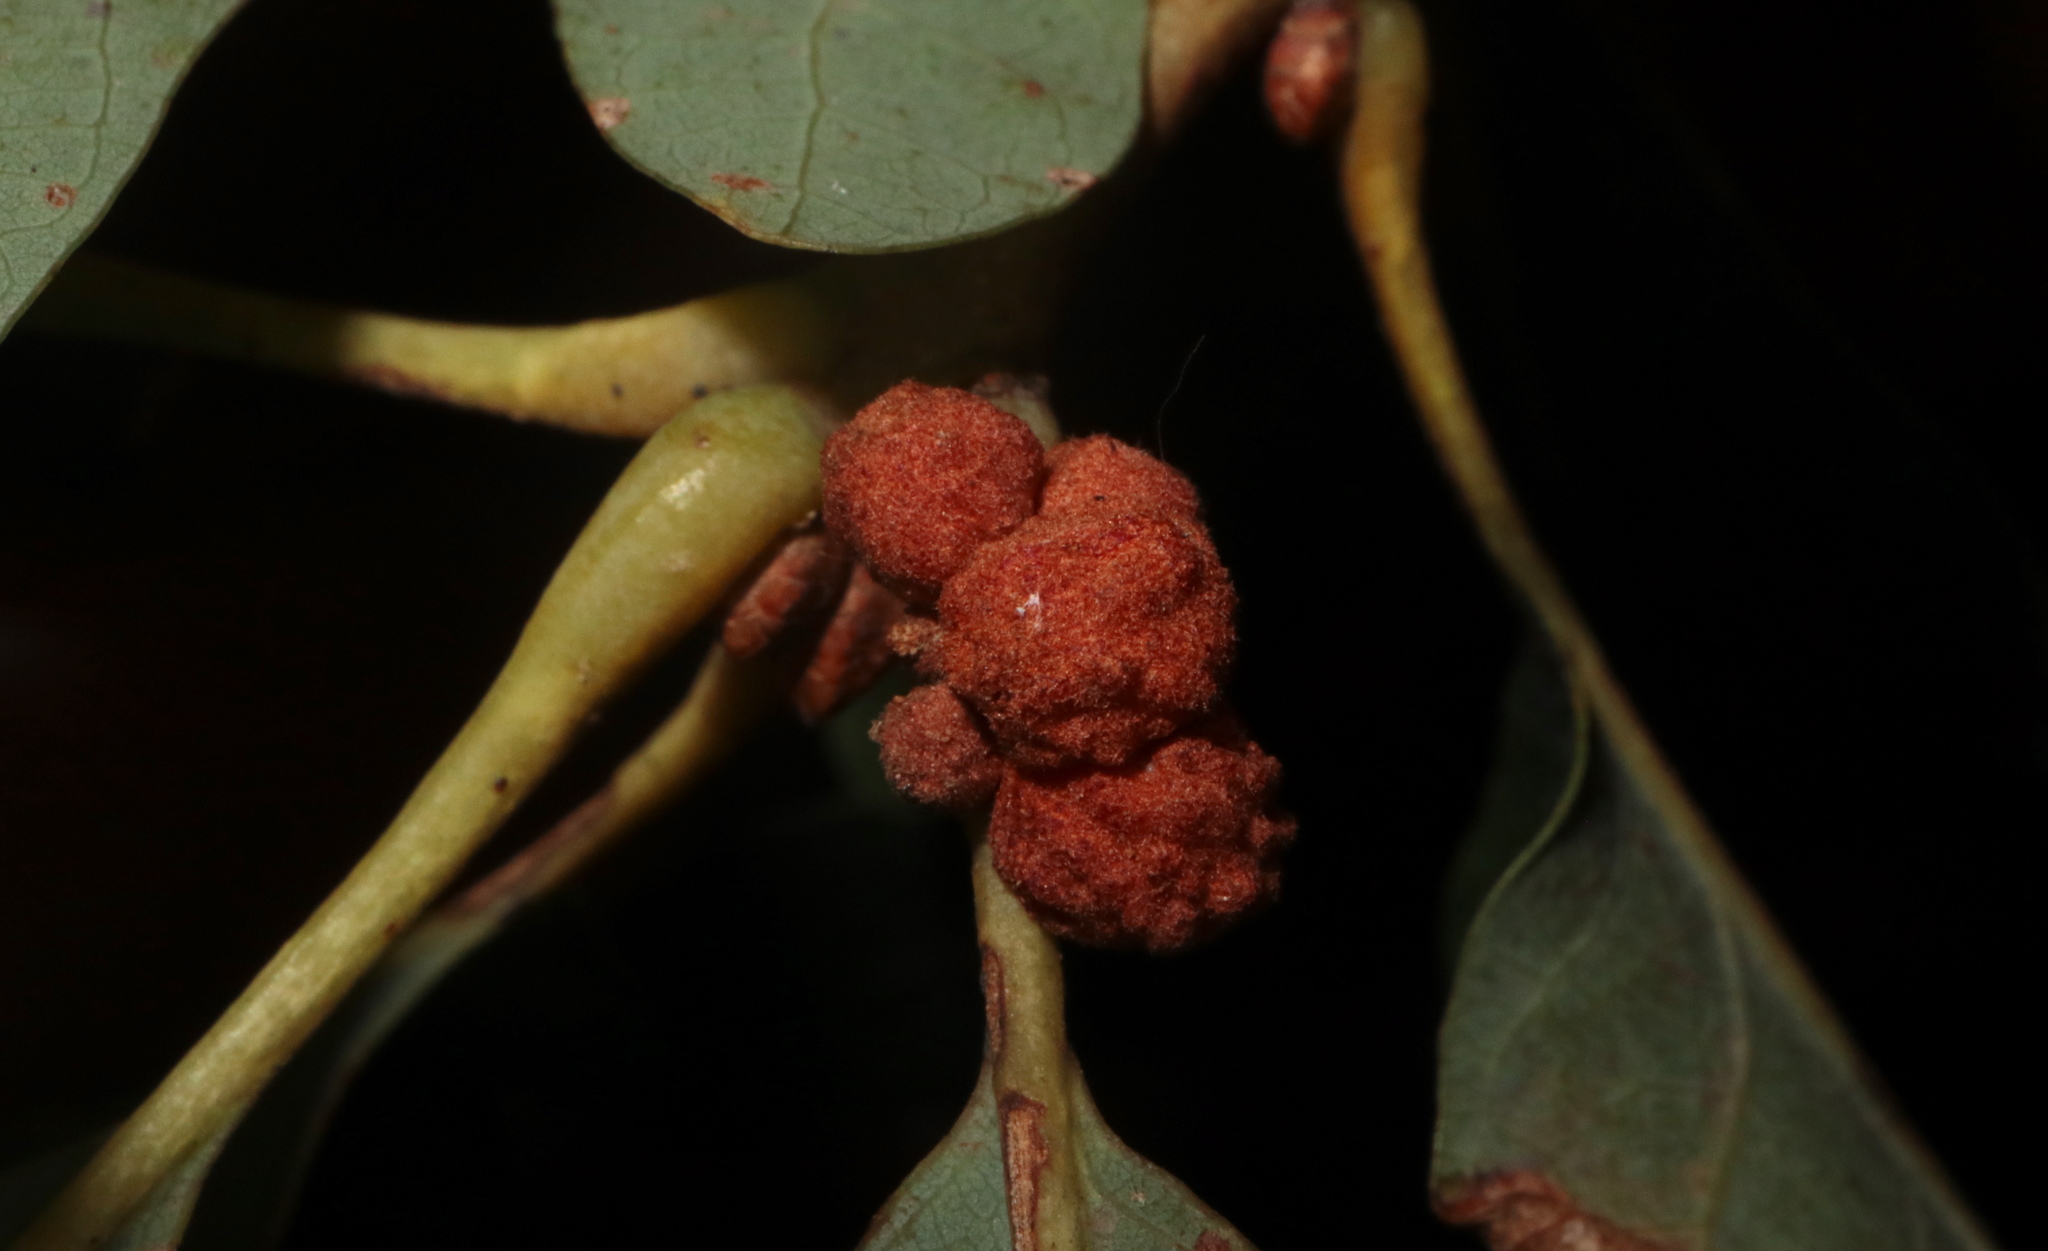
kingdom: Animalia
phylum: Arthropoda
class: Insecta
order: Hymenoptera
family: Cynipidae
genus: Andricus
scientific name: Andricus
